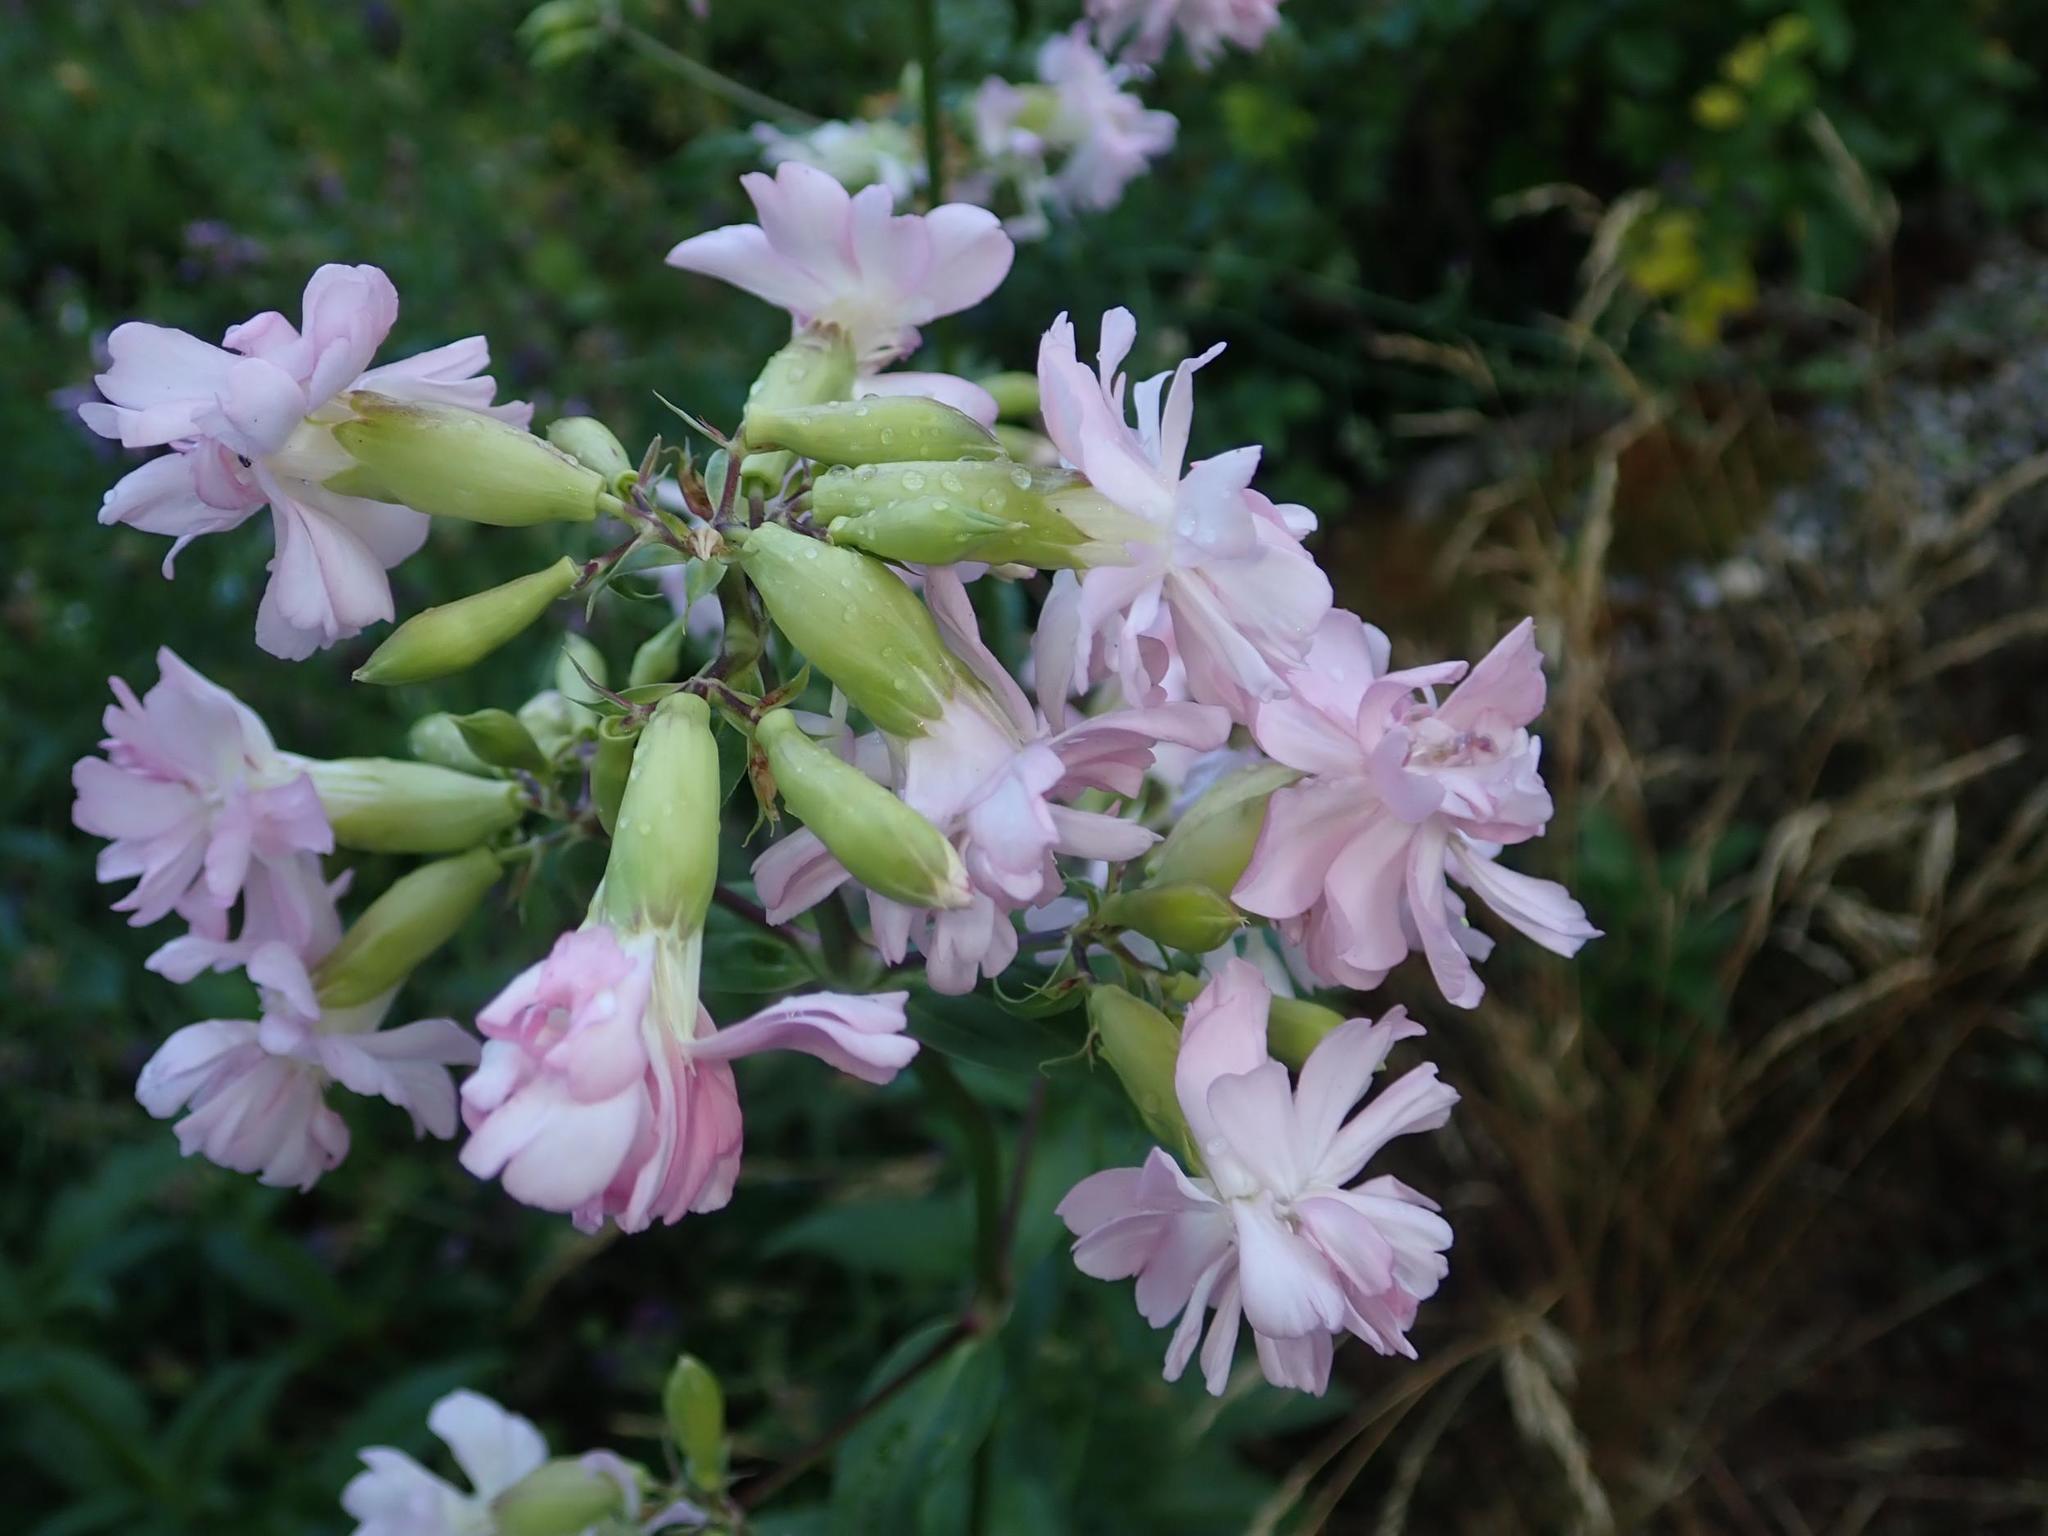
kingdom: Plantae
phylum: Tracheophyta
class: Magnoliopsida
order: Caryophyllales
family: Caryophyllaceae
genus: Saponaria
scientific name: Saponaria officinalis
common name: Soapwort
